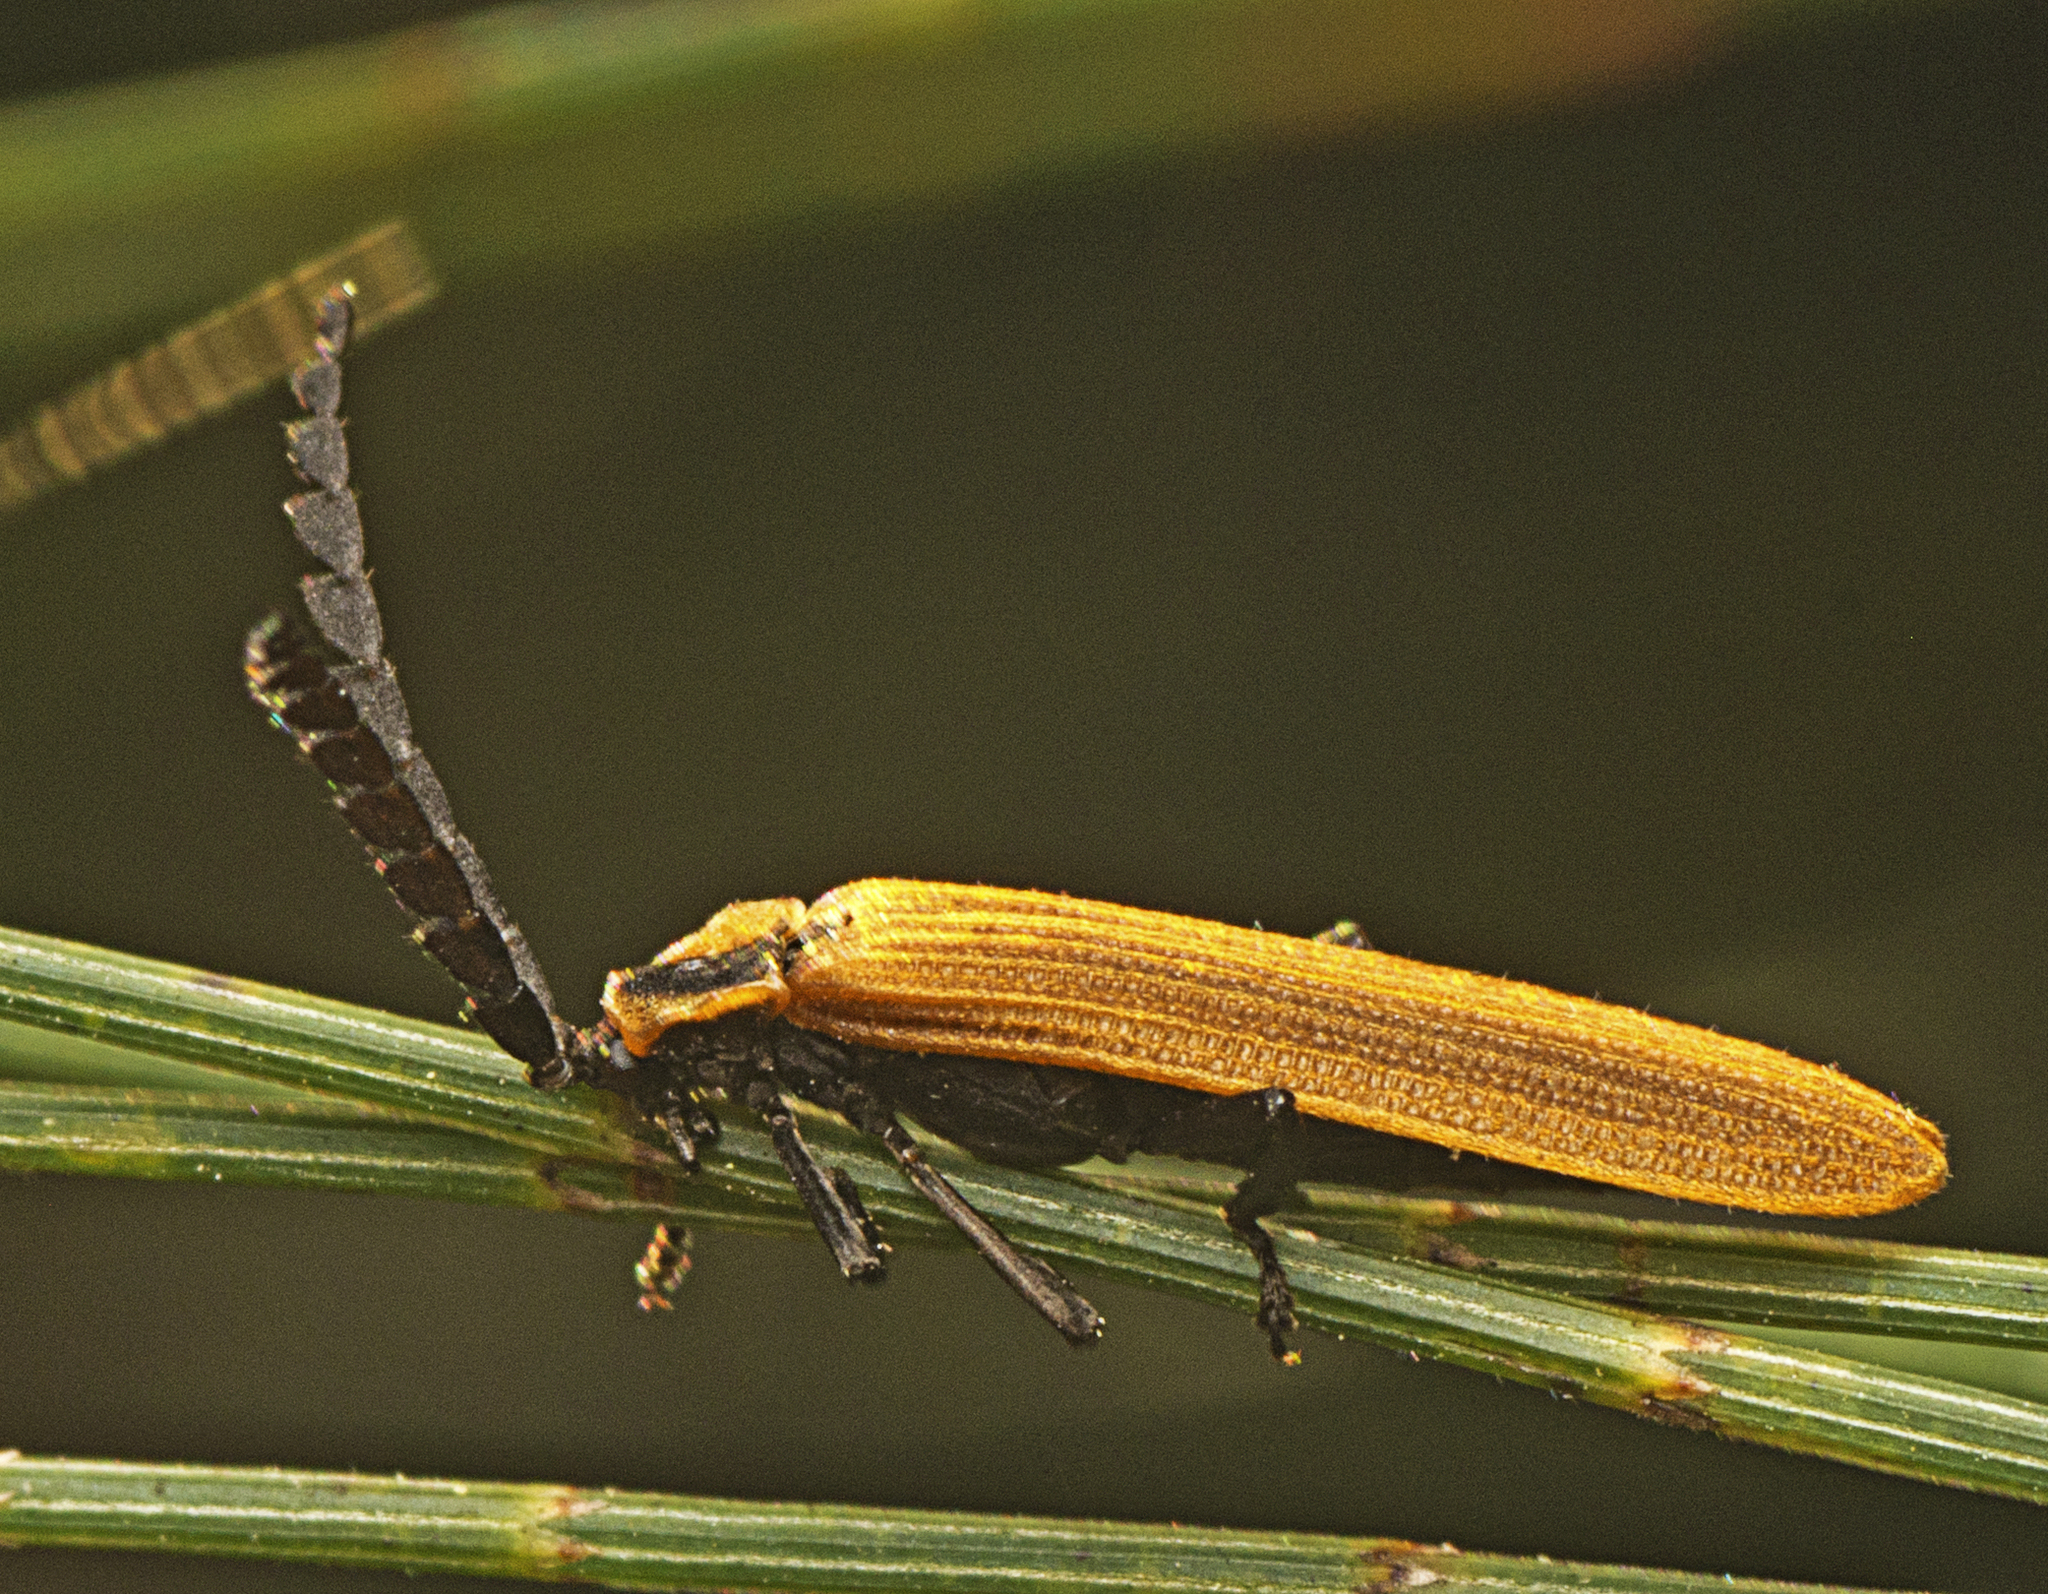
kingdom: Animalia
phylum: Arthropoda
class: Insecta
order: Coleoptera
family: Lycidae
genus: Trichalus
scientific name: Trichalus
